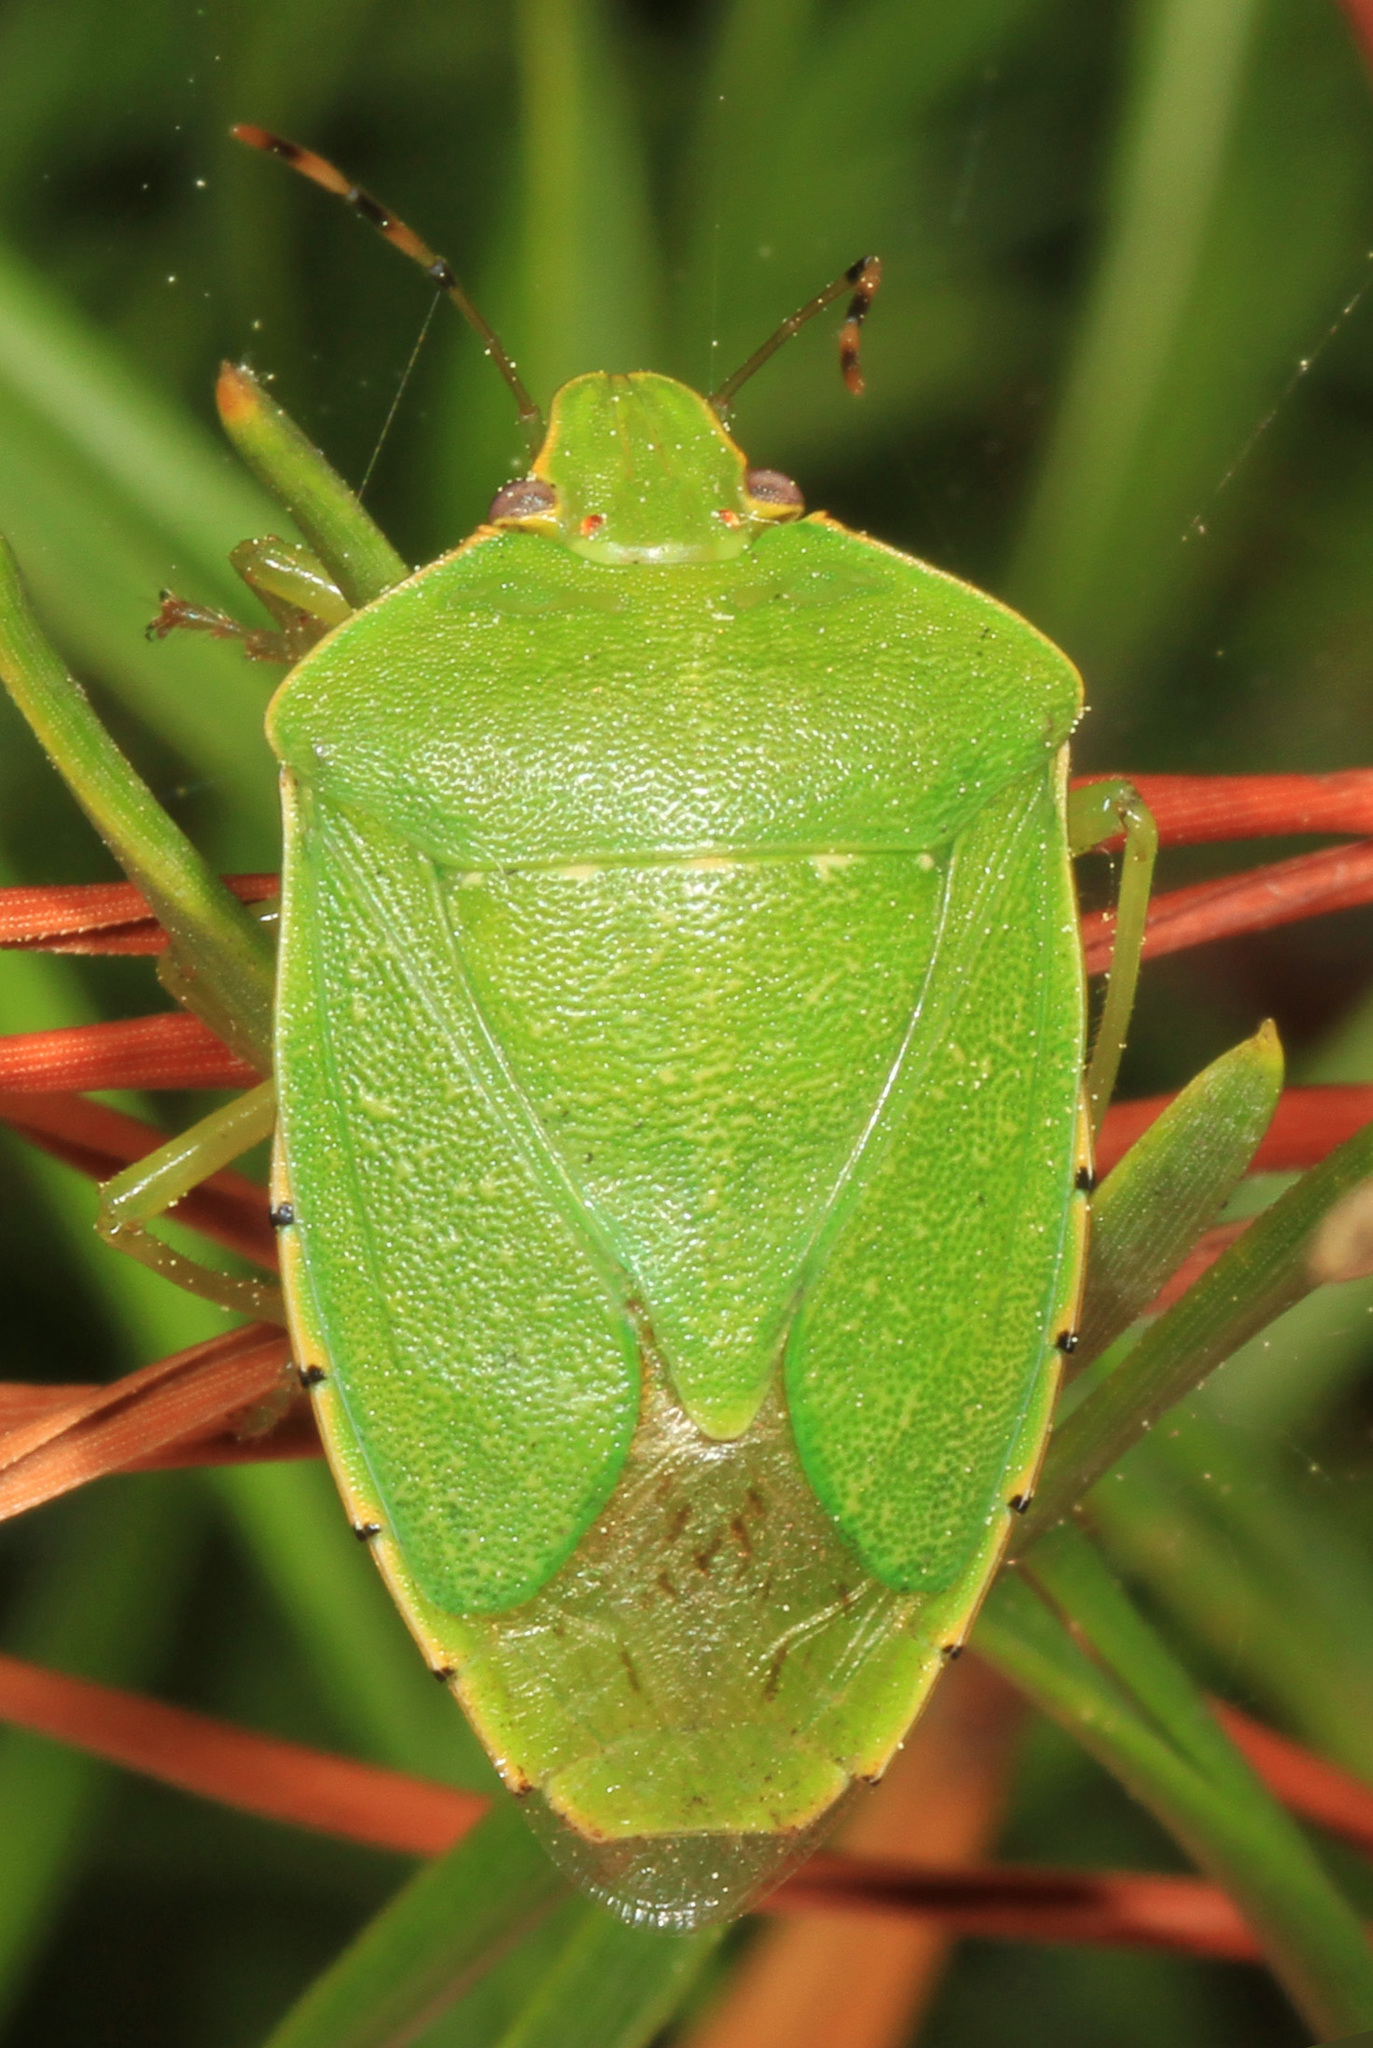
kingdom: Animalia
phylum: Arthropoda
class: Insecta
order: Hemiptera
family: Pentatomidae
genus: Chinavia
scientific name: Chinavia hilaris
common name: Green stink bug
